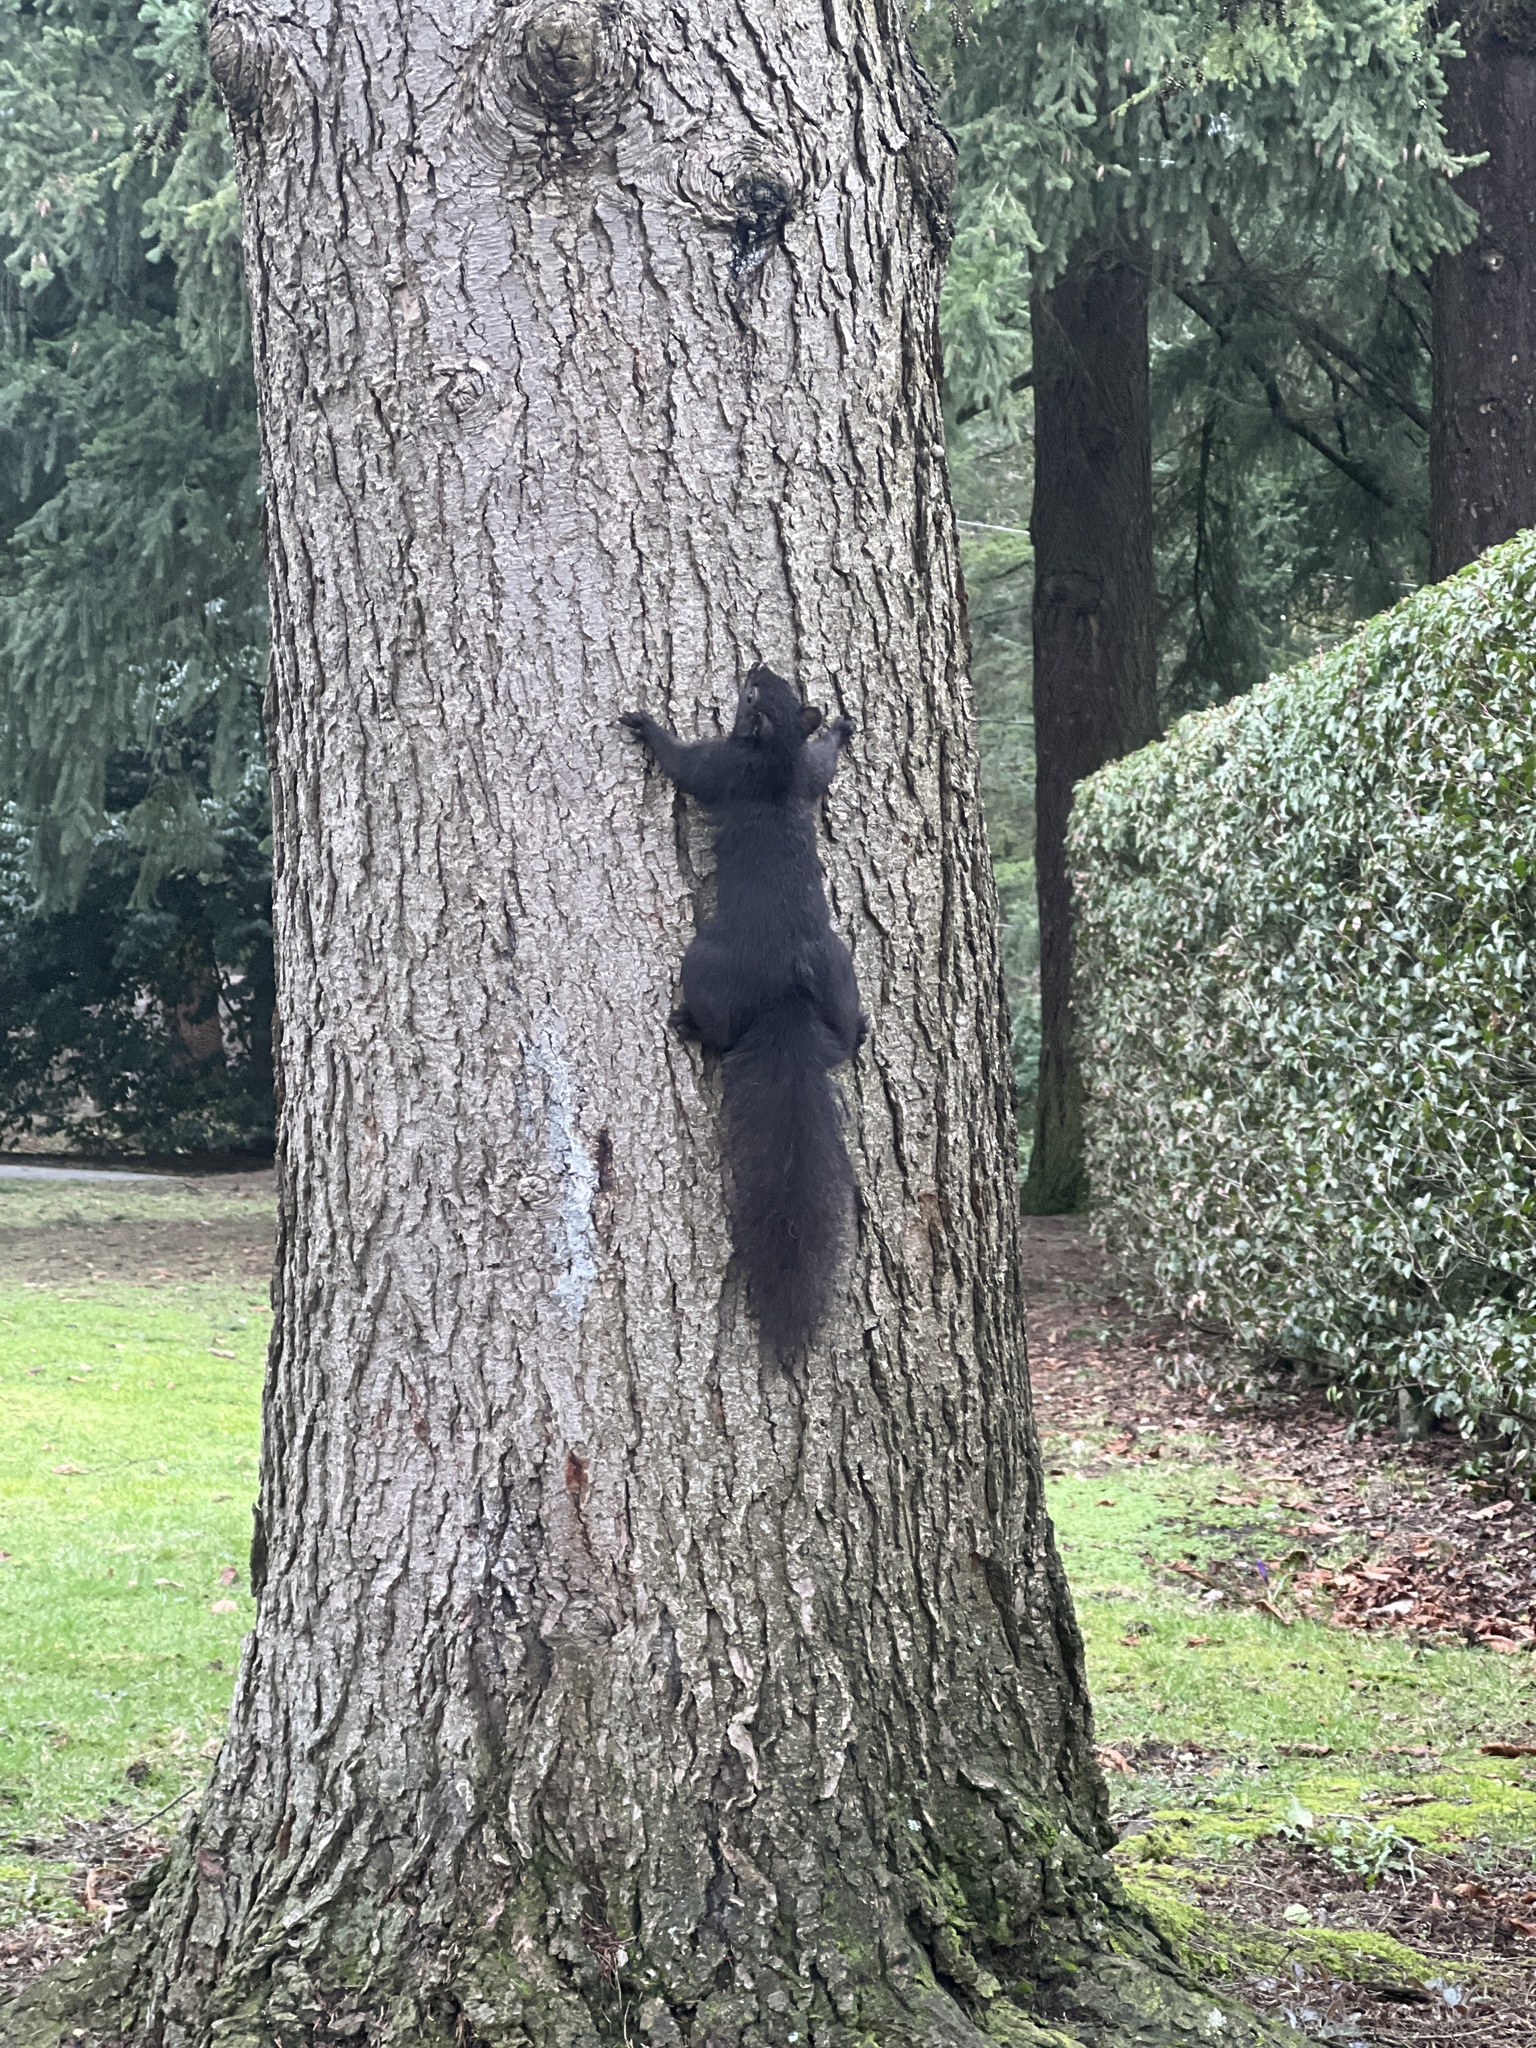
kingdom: Animalia
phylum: Chordata
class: Mammalia
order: Rodentia
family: Sciuridae
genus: Sciurus
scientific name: Sciurus carolinensis
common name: Eastern gray squirrel
